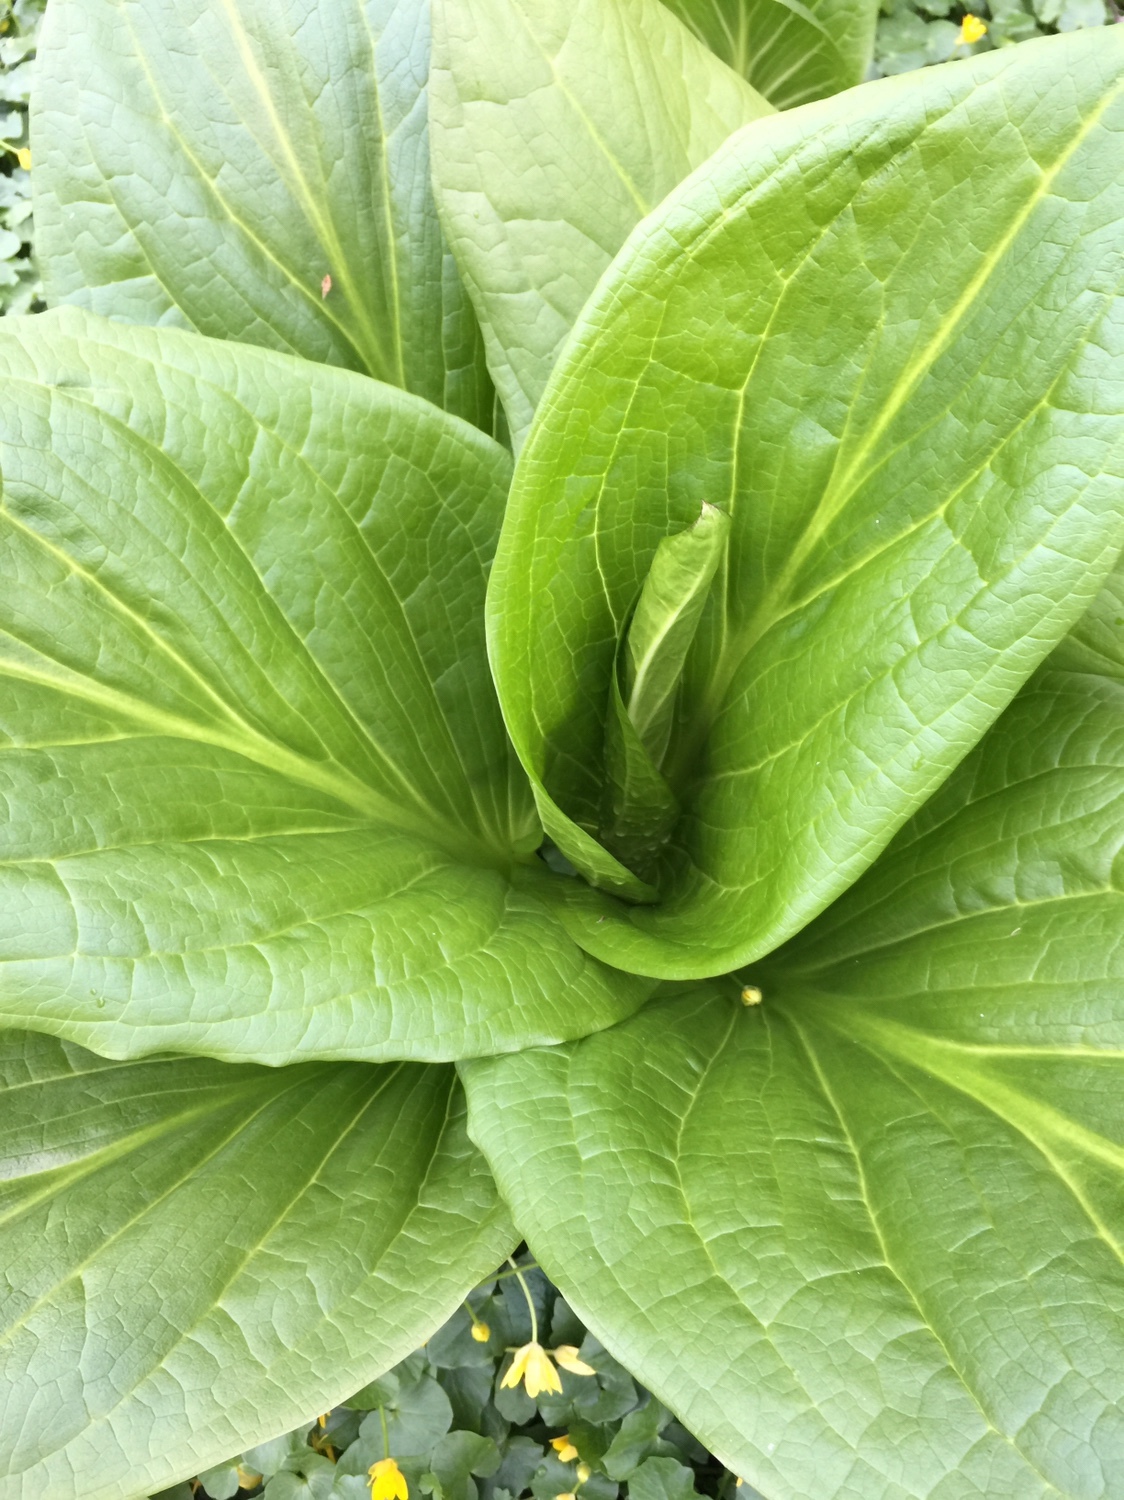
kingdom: Plantae
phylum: Tracheophyta
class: Liliopsida
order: Alismatales
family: Araceae
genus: Symplocarpus
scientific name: Symplocarpus foetidus
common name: Eastern skunk cabbage
